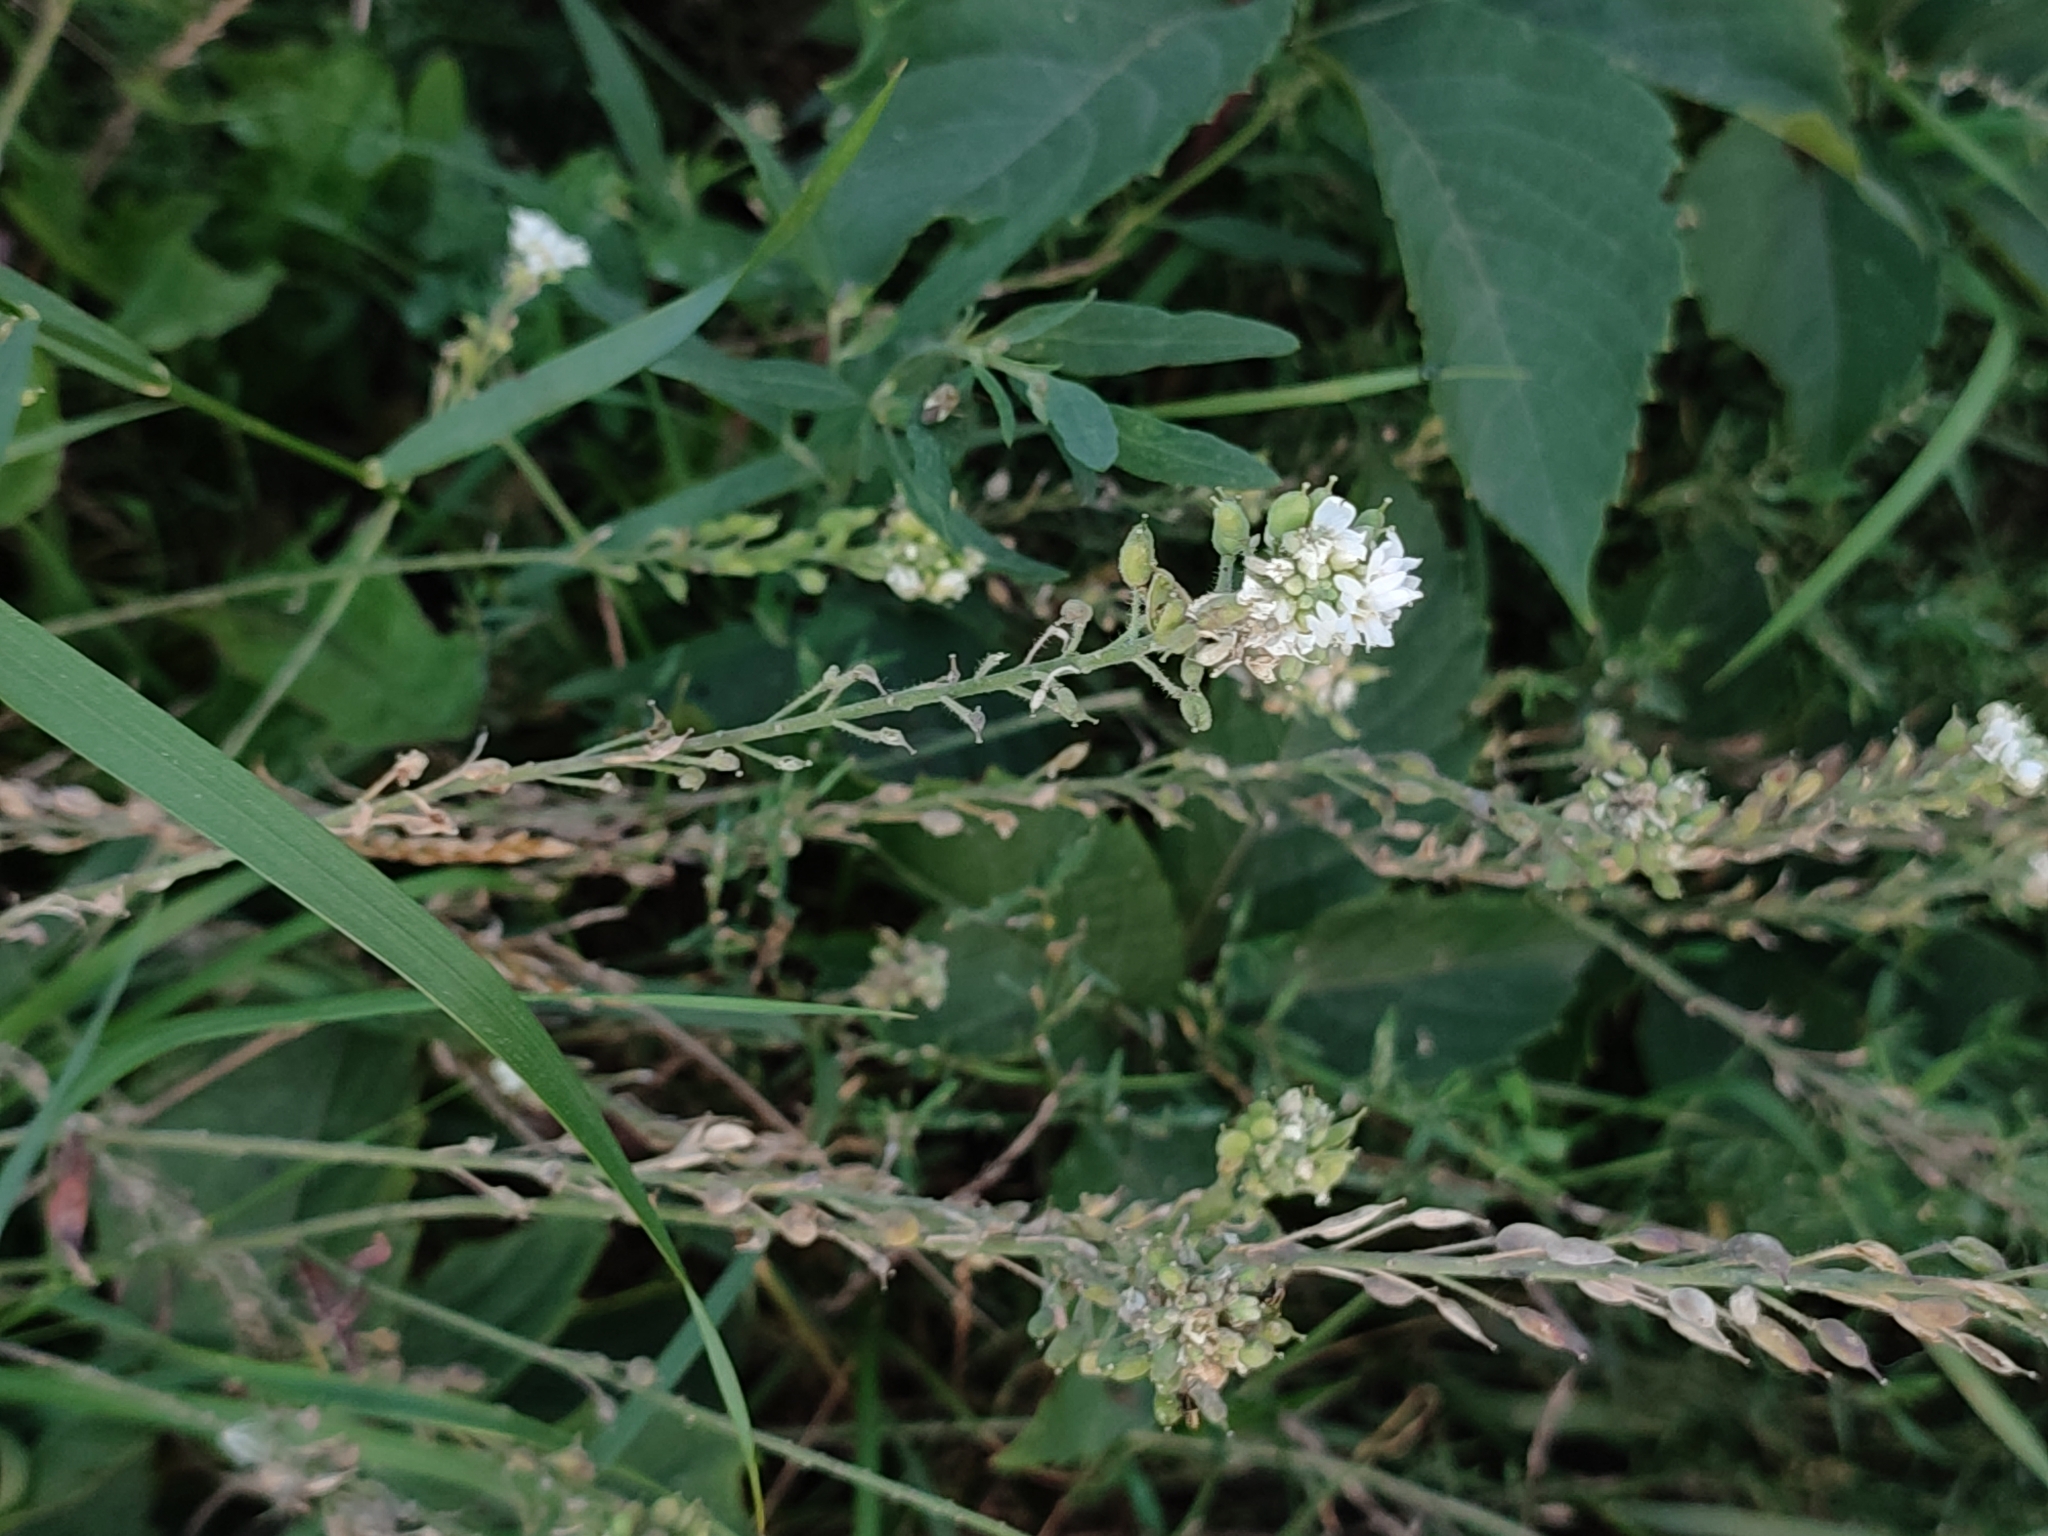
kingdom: Plantae
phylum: Tracheophyta
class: Magnoliopsida
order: Brassicales
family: Brassicaceae
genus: Berteroa
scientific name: Berteroa incana
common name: Hoary alison
